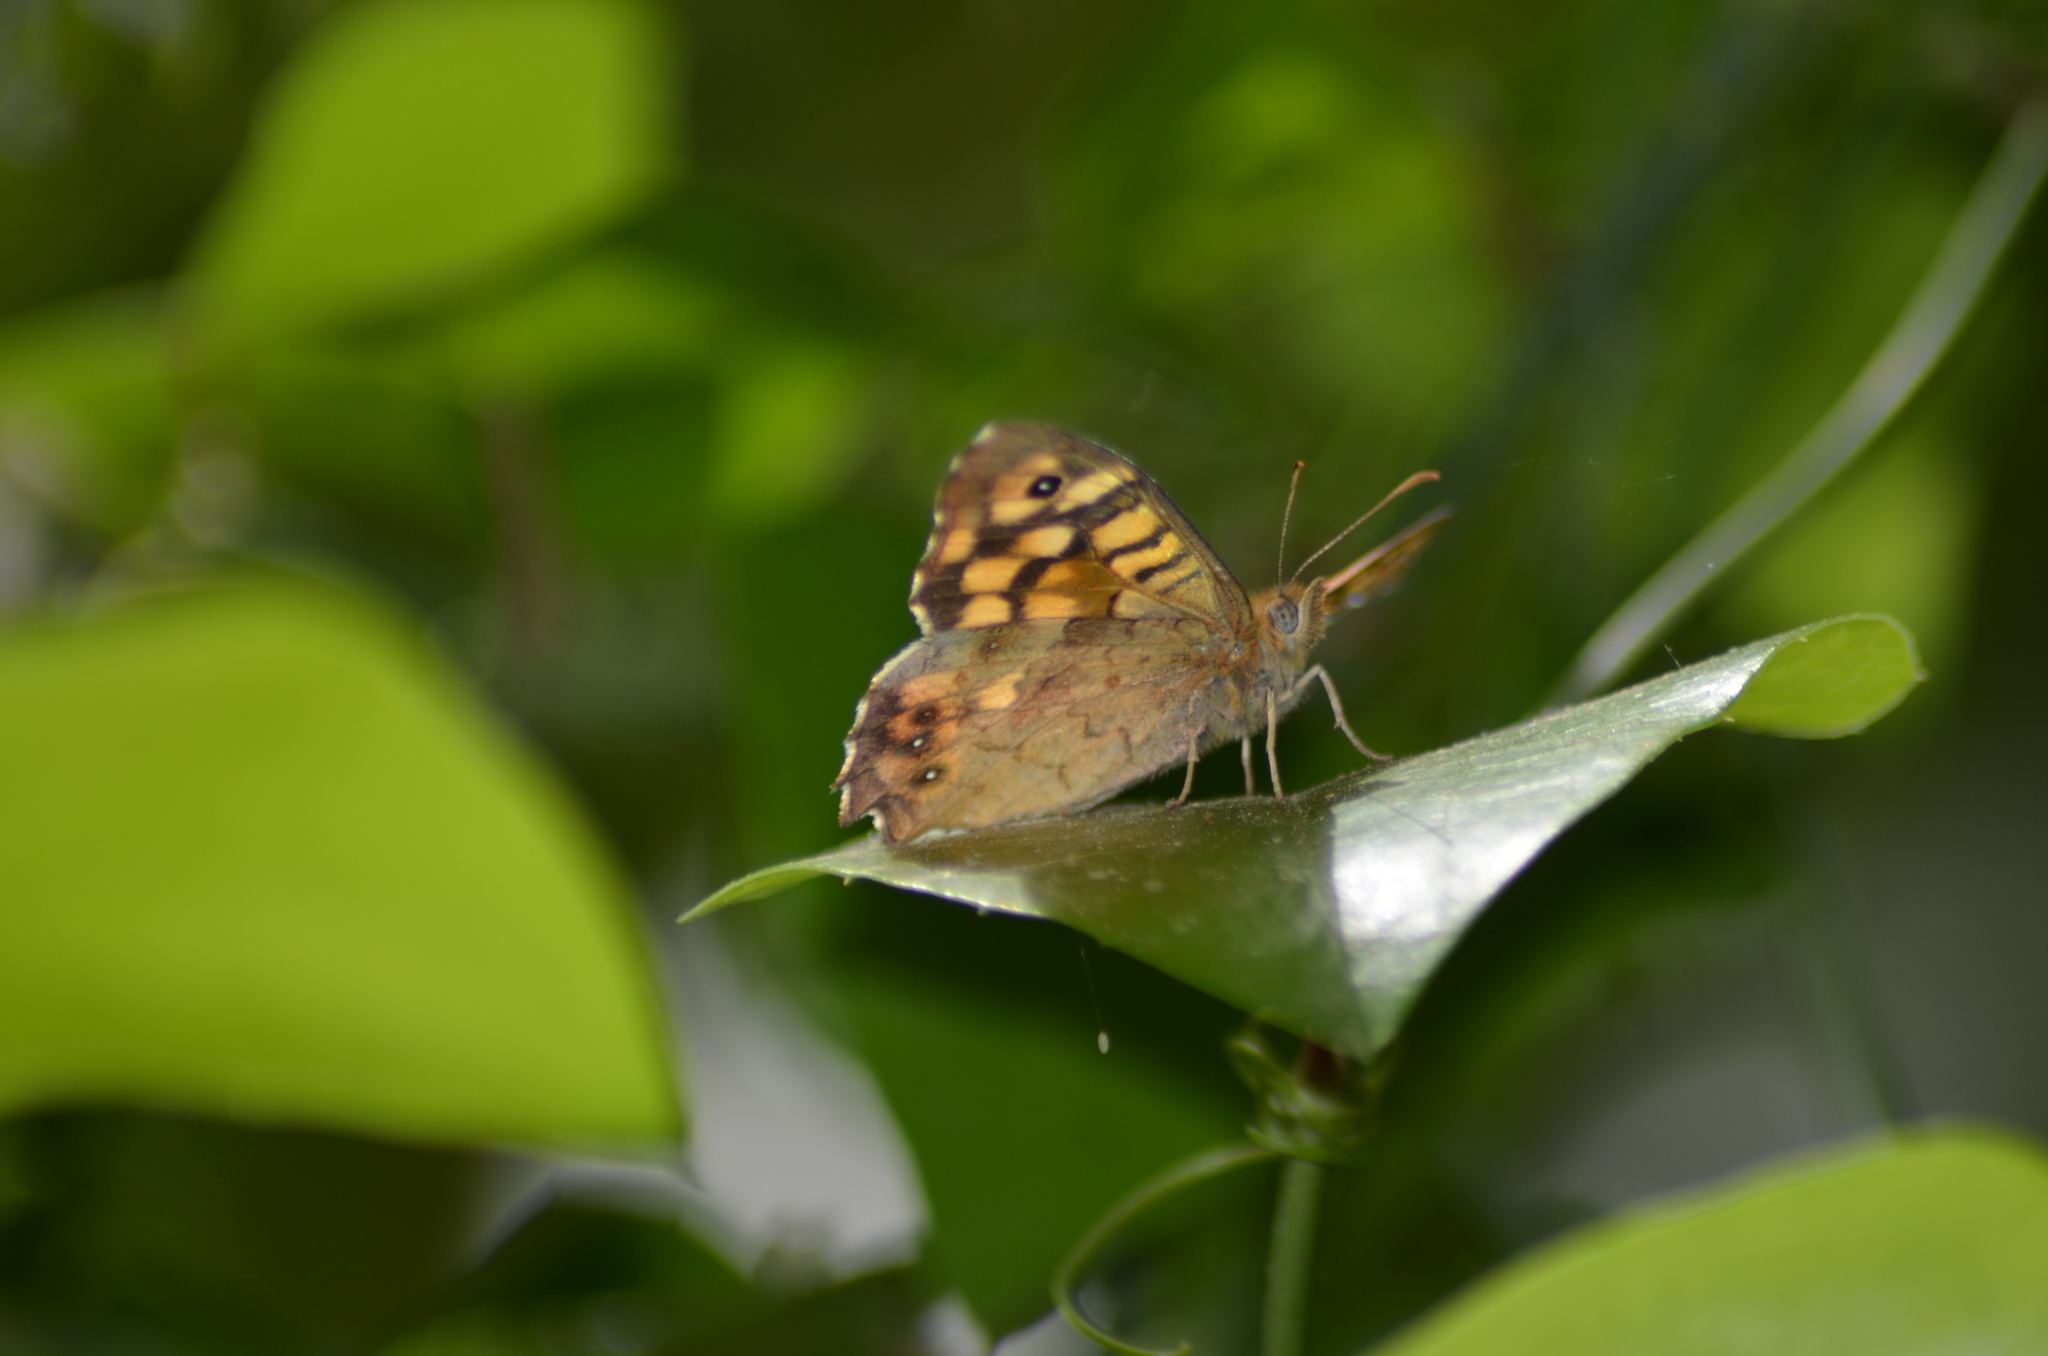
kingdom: Animalia
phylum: Arthropoda
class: Insecta
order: Lepidoptera
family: Nymphalidae
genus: Pararge
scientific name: Pararge aegeria
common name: Speckled wood
